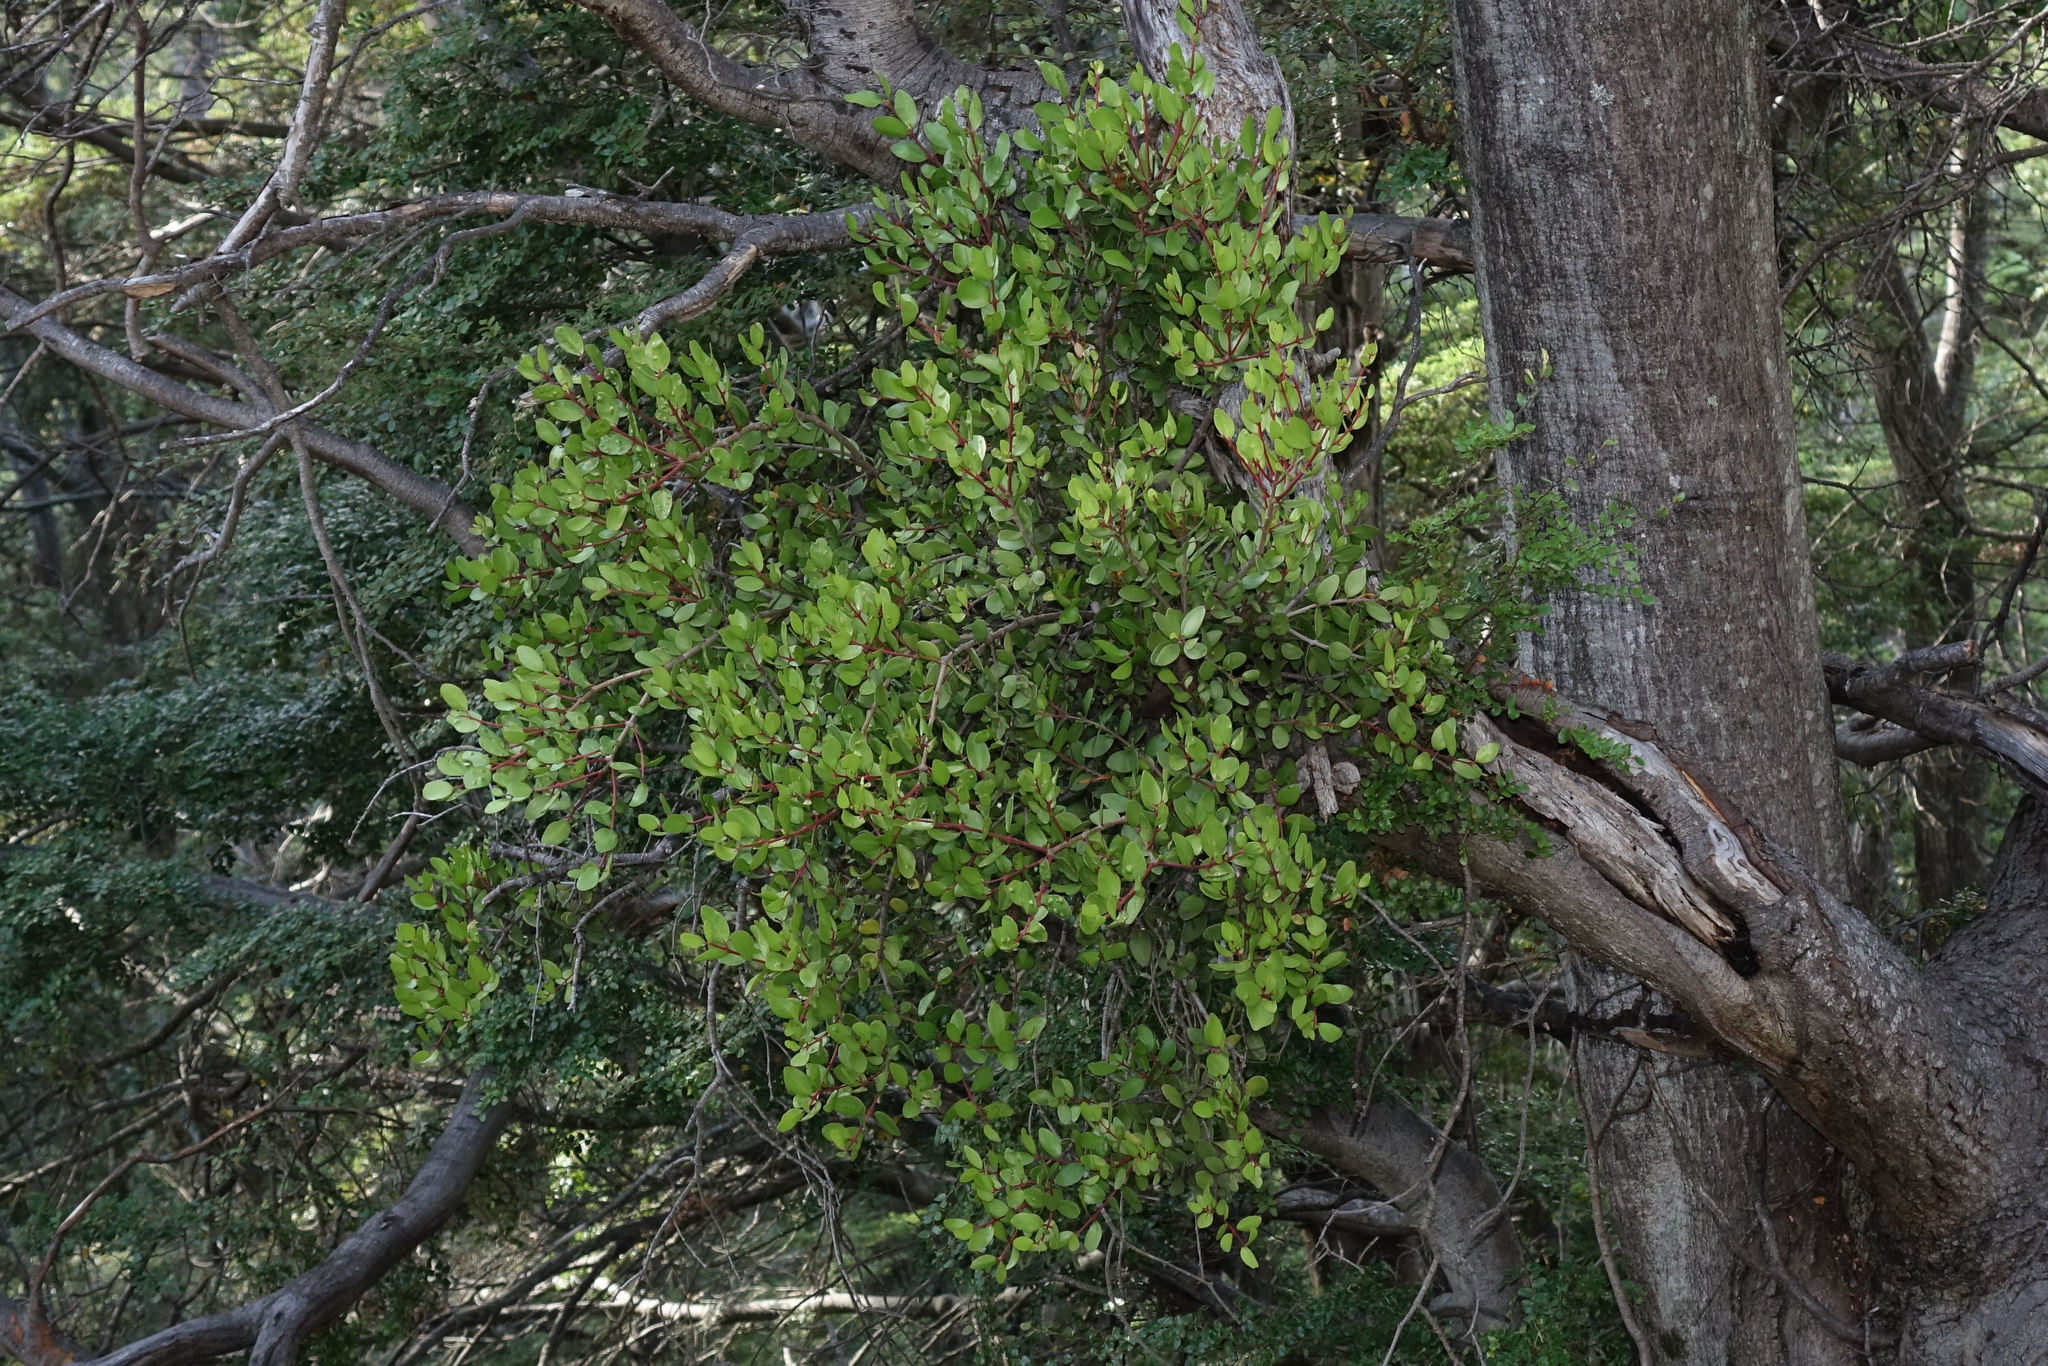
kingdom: Plantae
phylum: Tracheophyta
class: Magnoliopsida
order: Santalales
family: Loranthaceae
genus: Peraxilla
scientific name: Peraxilla tetrapetala
